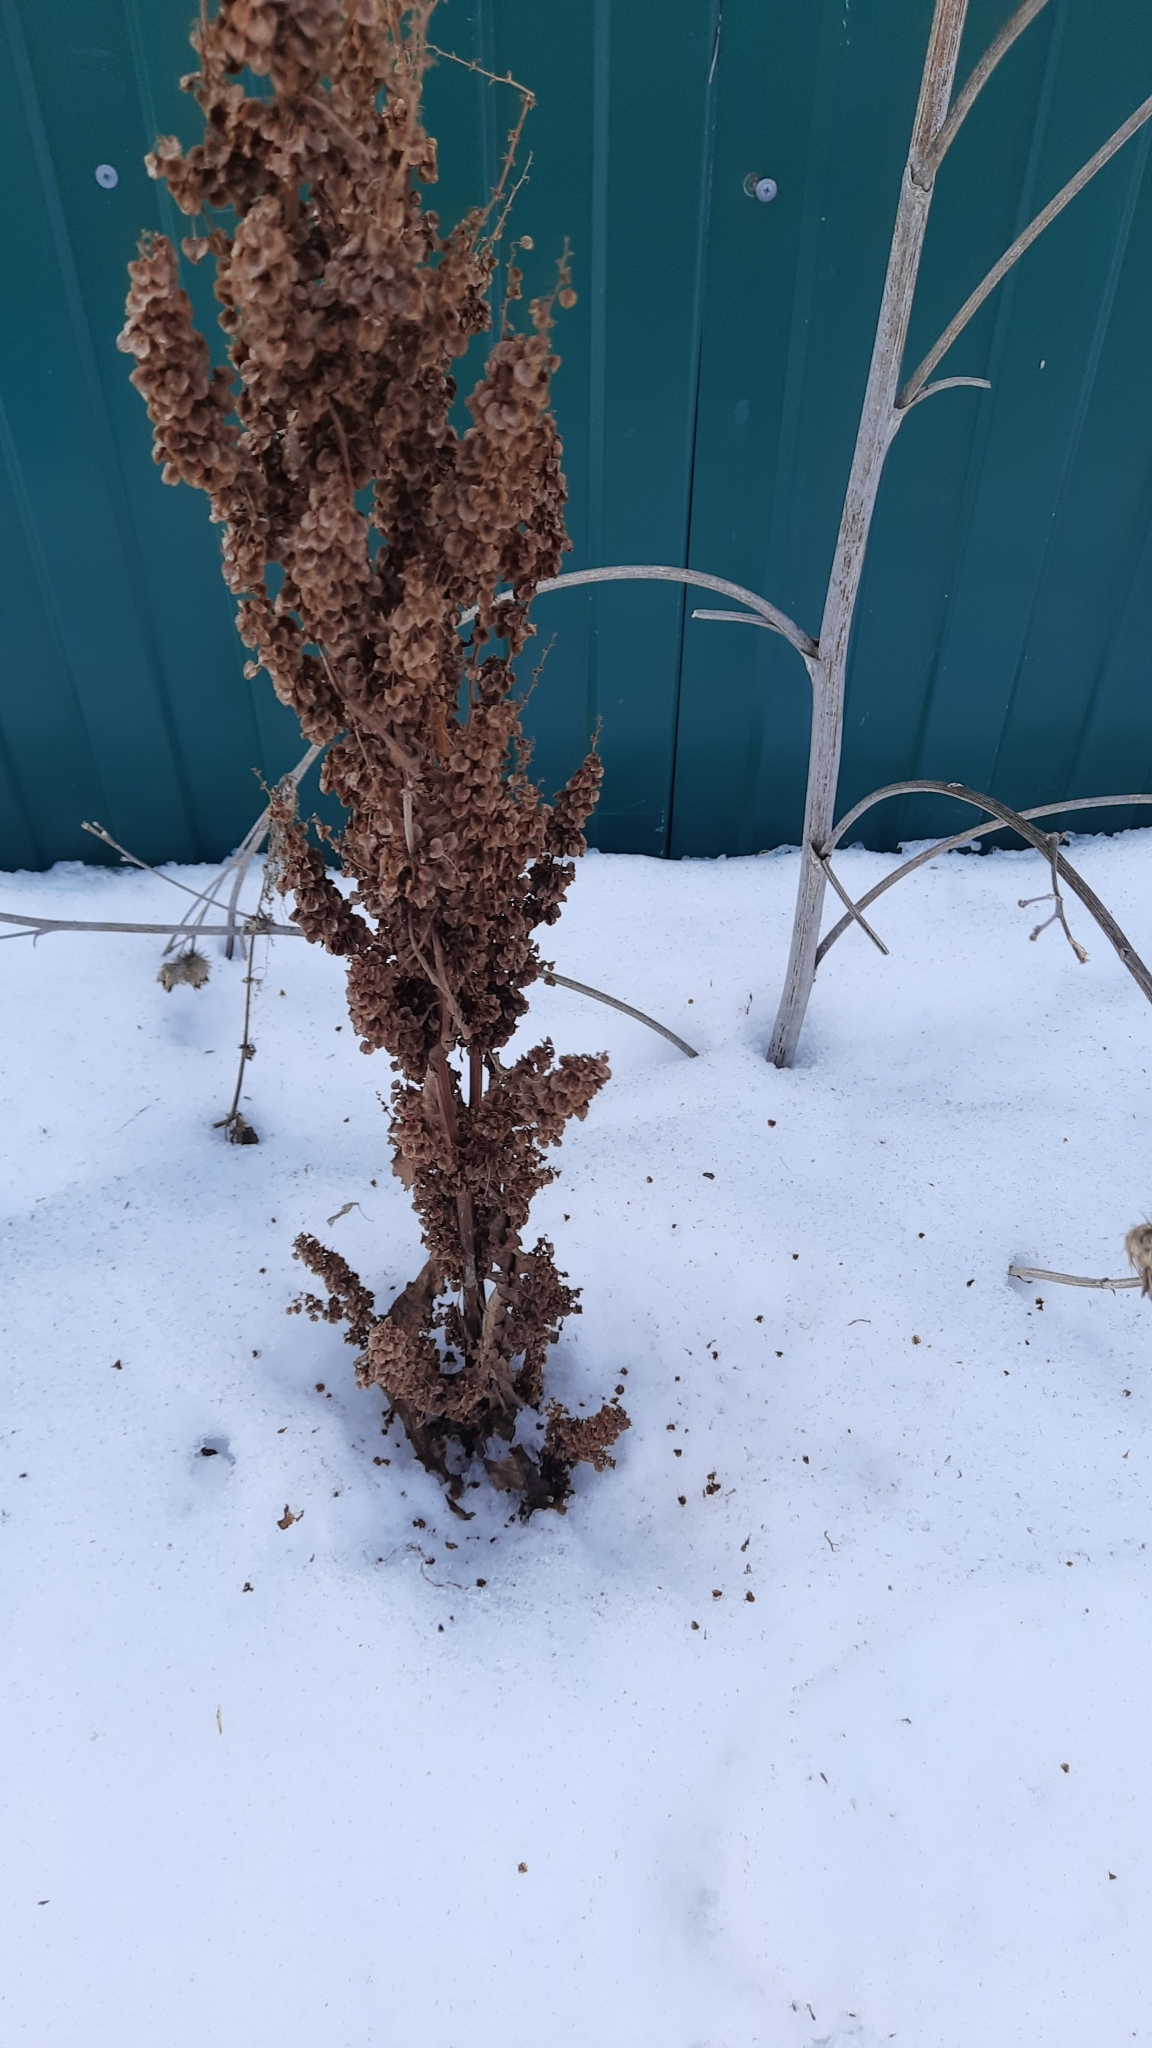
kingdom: Plantae
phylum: Tracheophyta
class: Magnoliopsida
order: Caryophyllales
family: Polygonaceae
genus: Rumex
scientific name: Rumex pseudonatronatus
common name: Field dock
